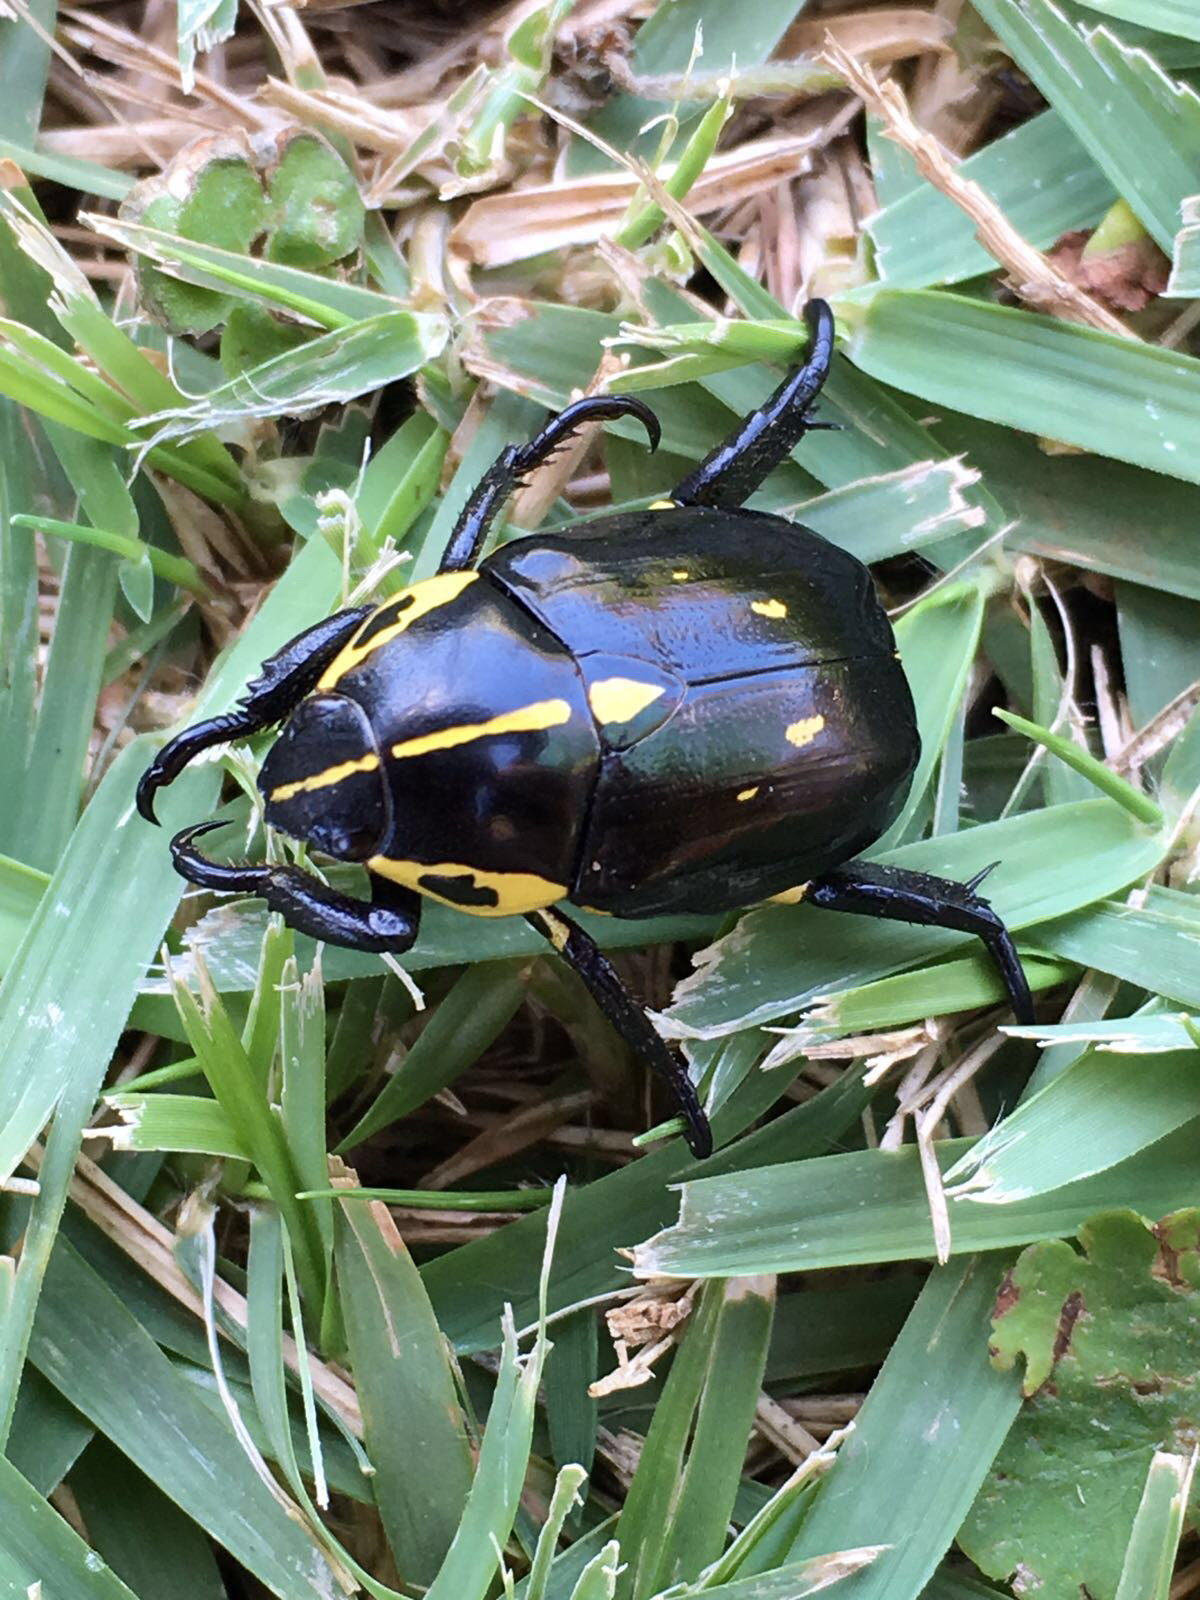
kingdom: Animalia
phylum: Arthropoda
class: Insecta
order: Coleoptera
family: Scarabaeidae
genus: Rutela
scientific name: Rutela lineola
